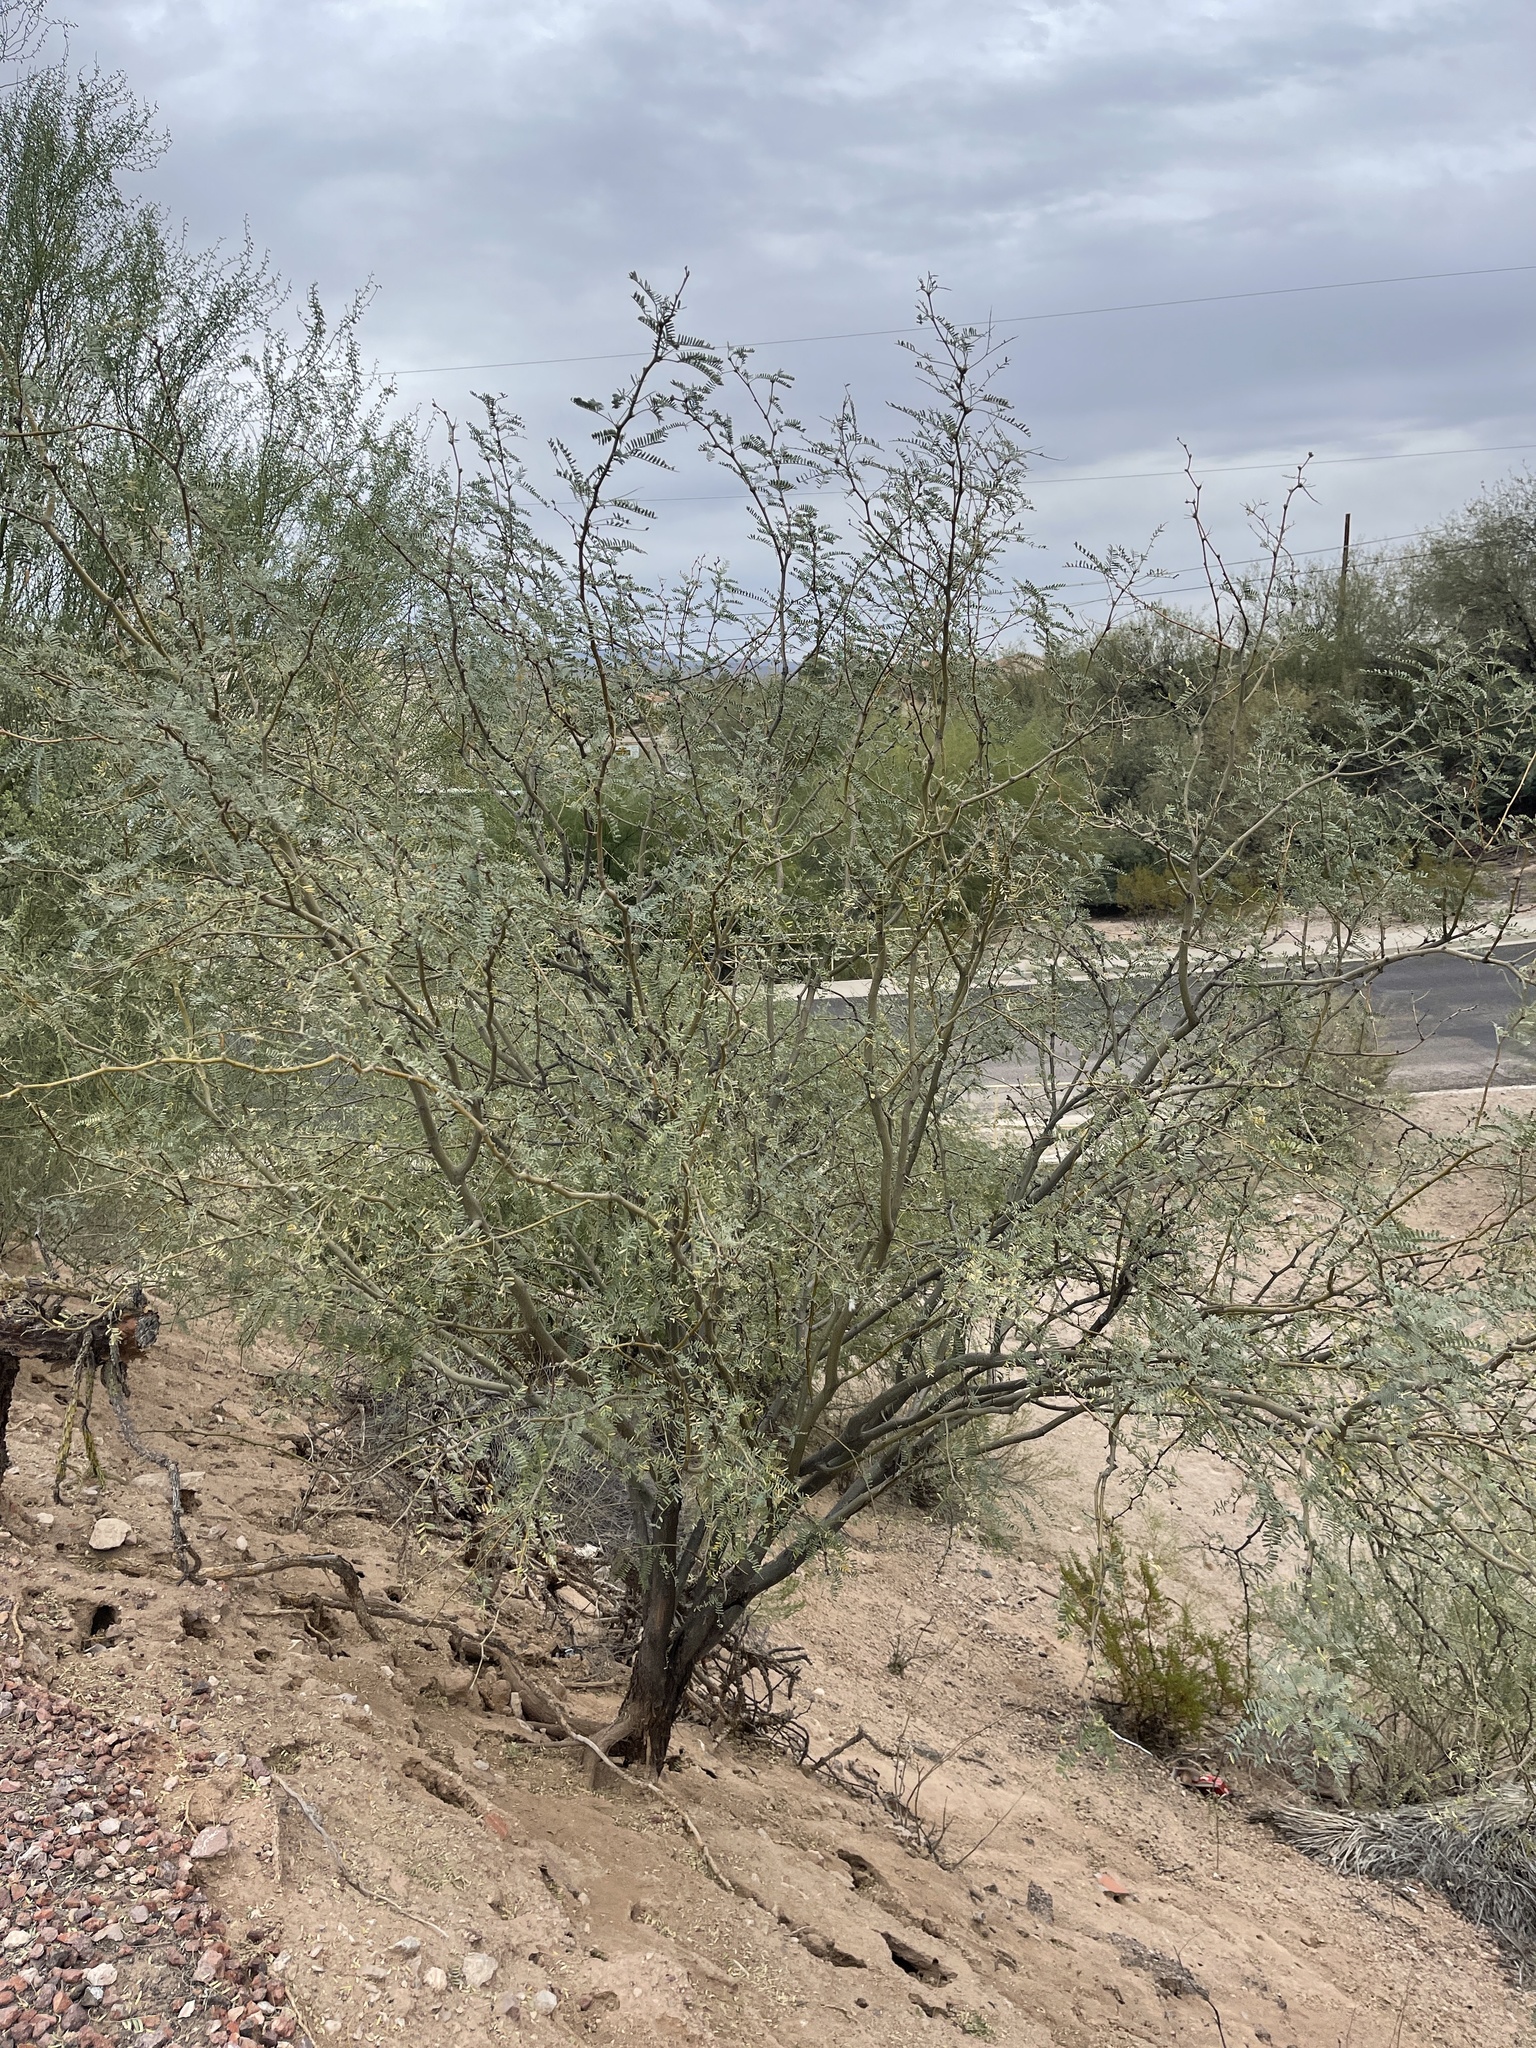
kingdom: Plantae
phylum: Tracheophyta
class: Magnoliopsida
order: Fabales
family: Fabaceae
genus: Prosopis
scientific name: Prosopis velutina
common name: Velvet mesquite
